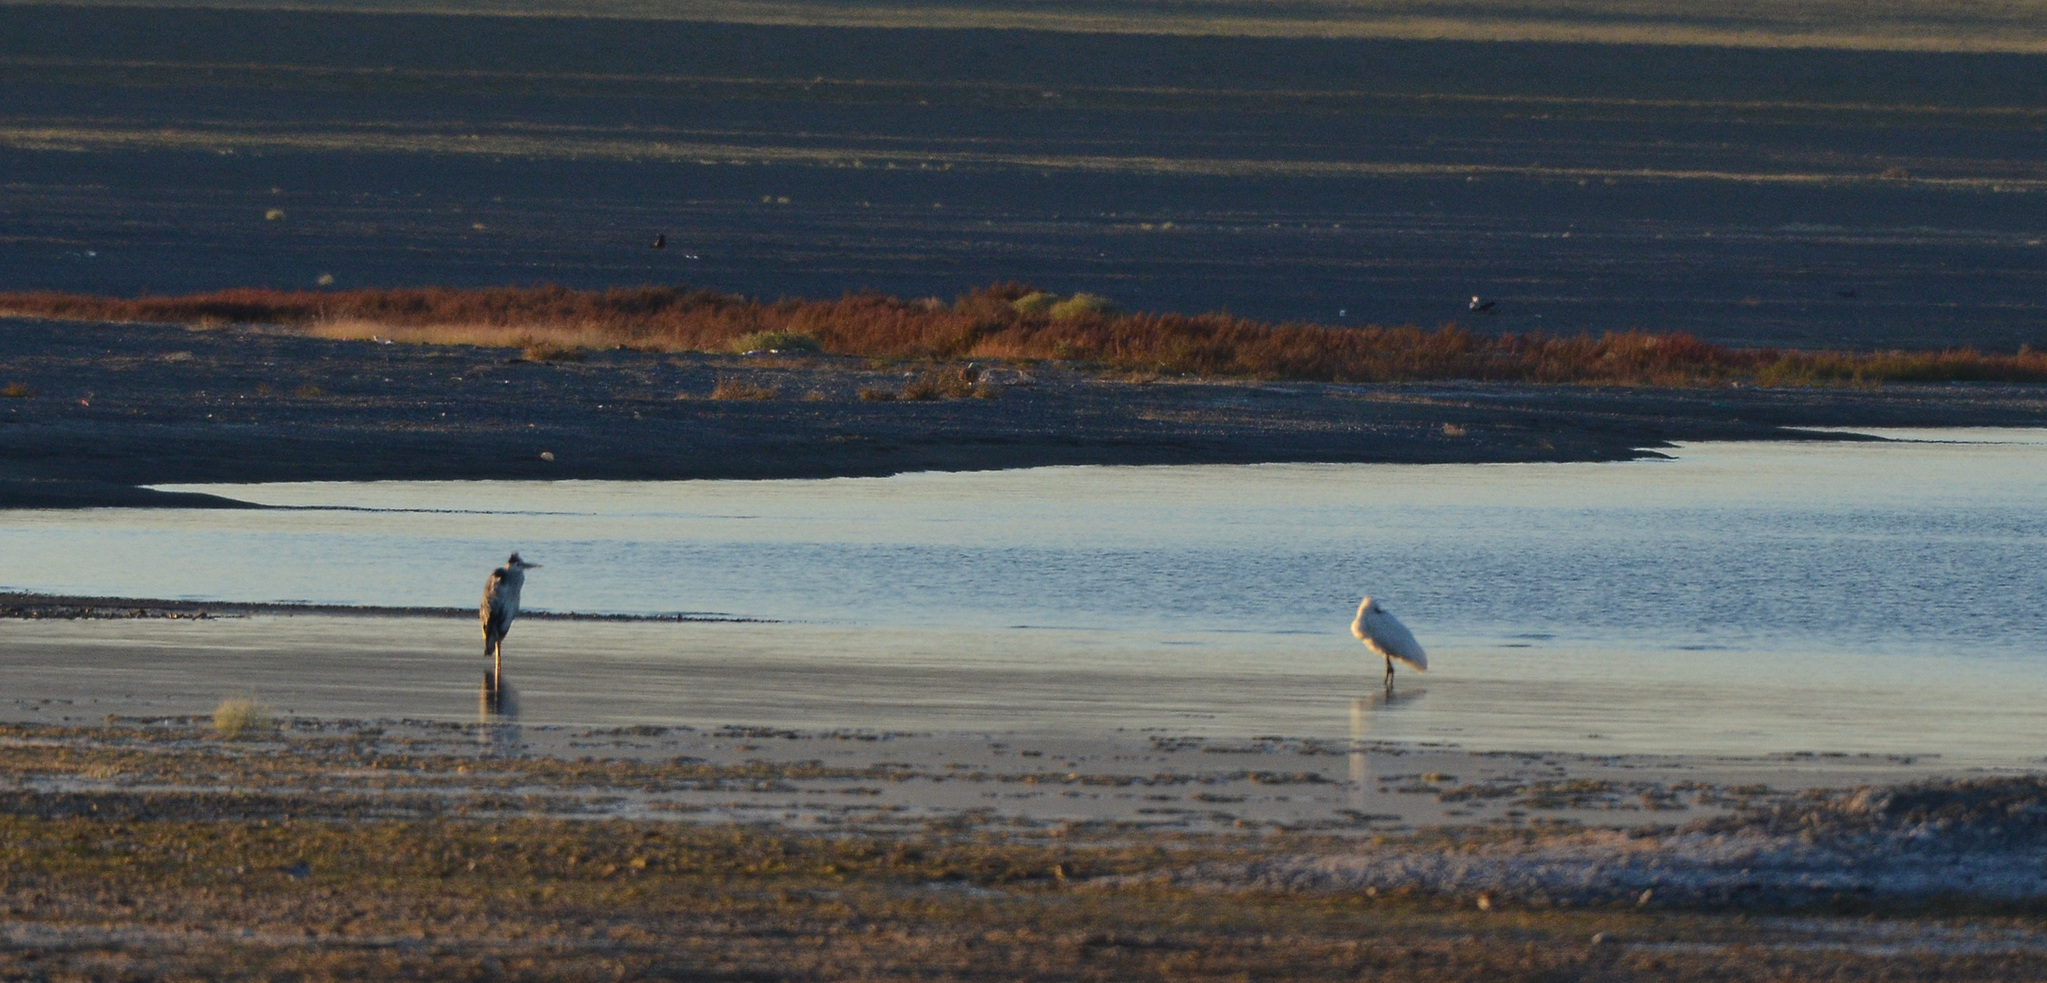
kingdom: Animalia
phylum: Chordata
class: Aves
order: Pelecaniformes
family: Ardeidae
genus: Ardea
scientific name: Ardea cinerea
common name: Grey heron
